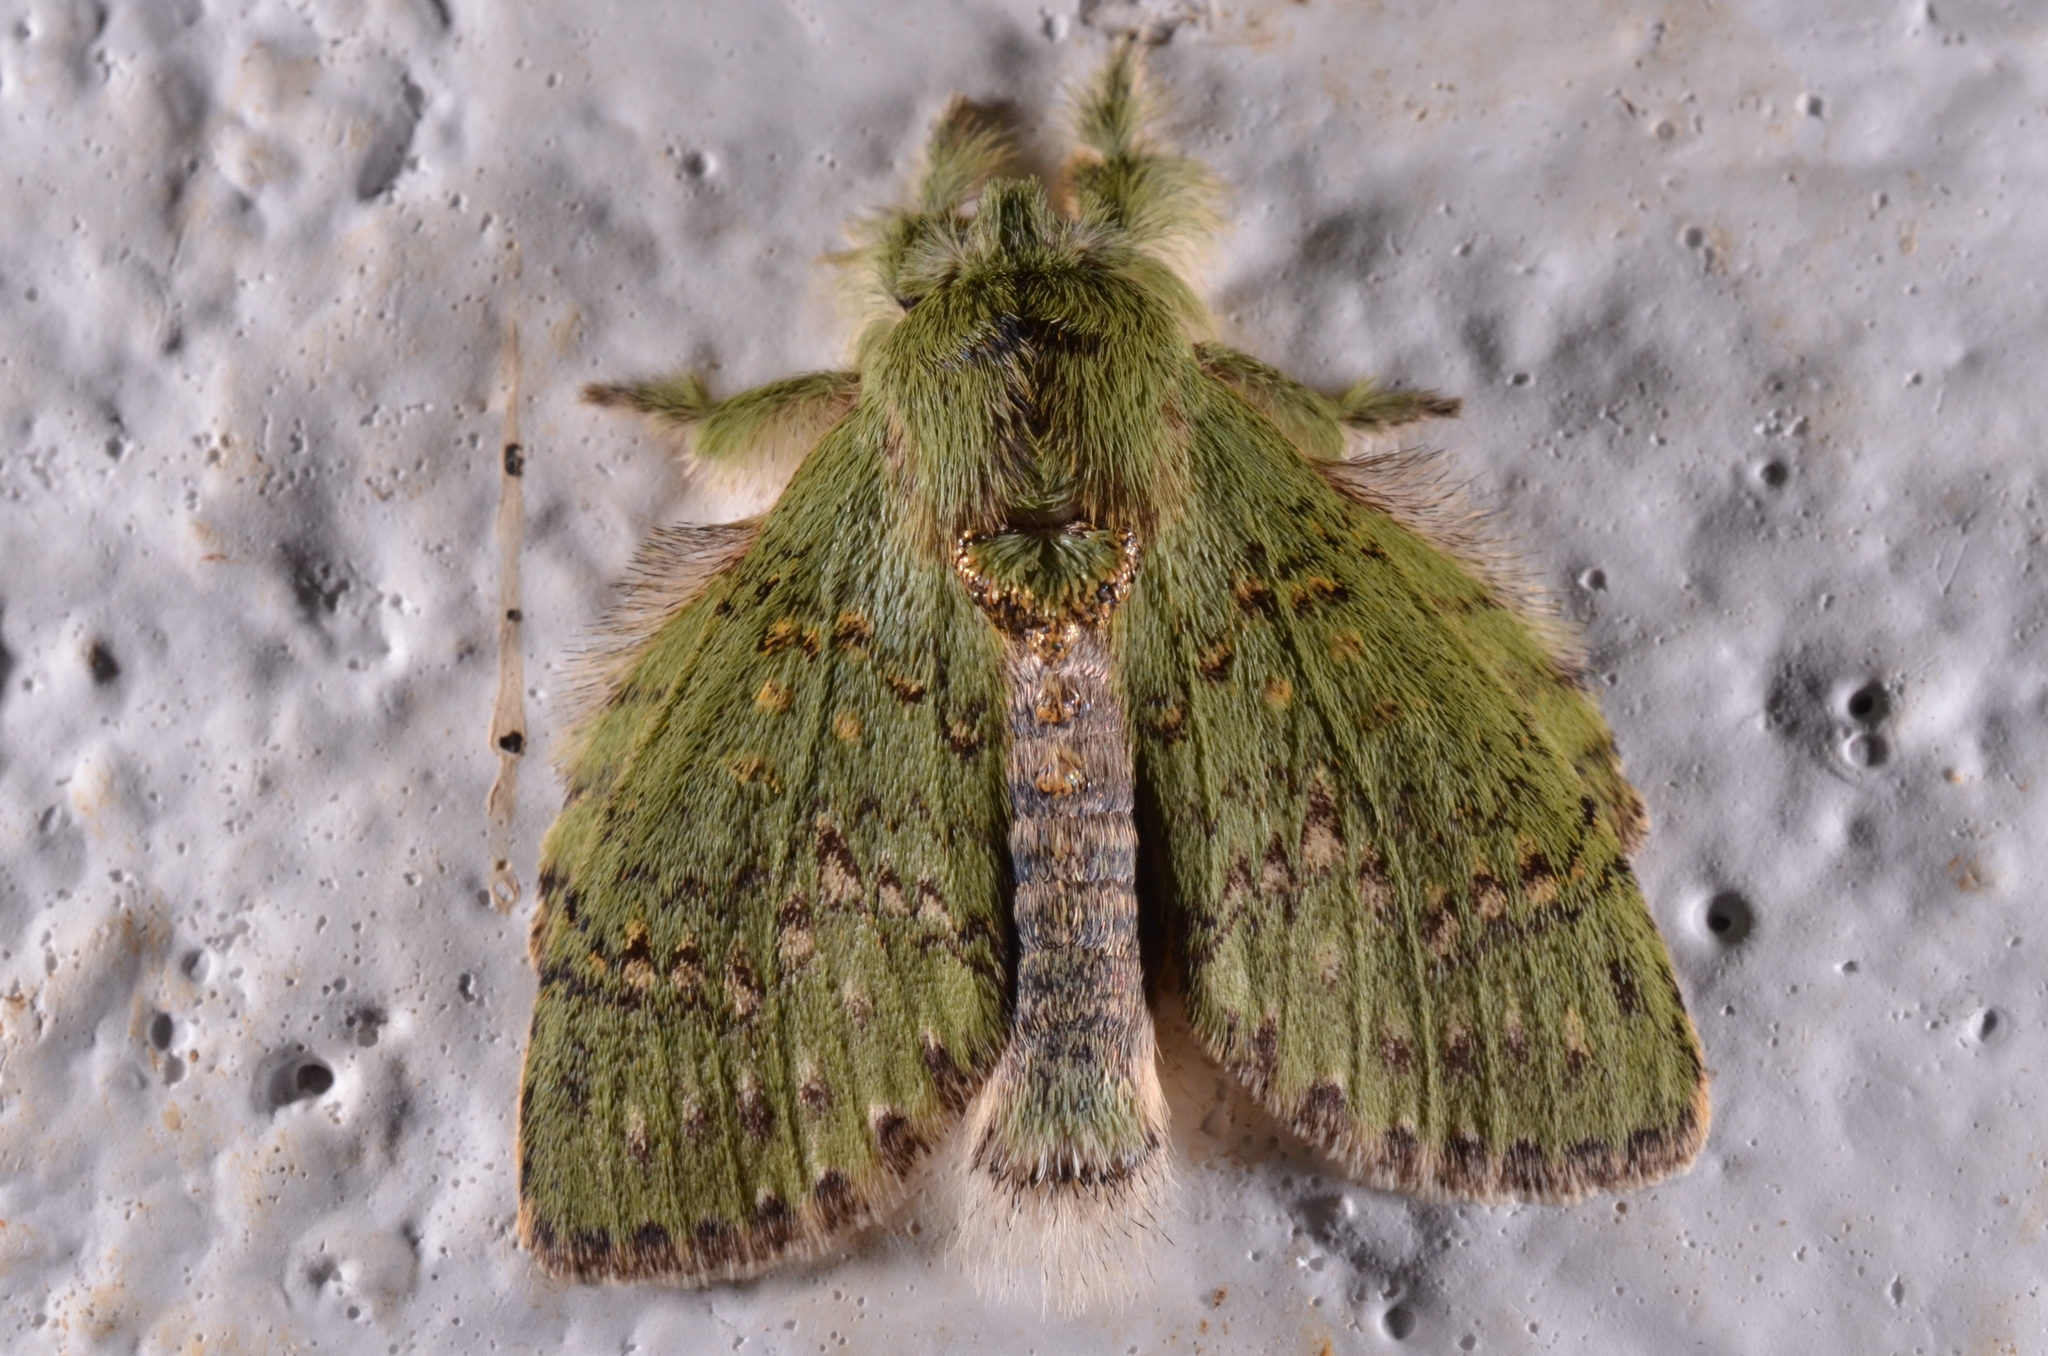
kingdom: Animalia
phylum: Arthropoda
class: Insecta
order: Lepidoptera
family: Notodontidae
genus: Stauropus
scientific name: Stauropus virescens
